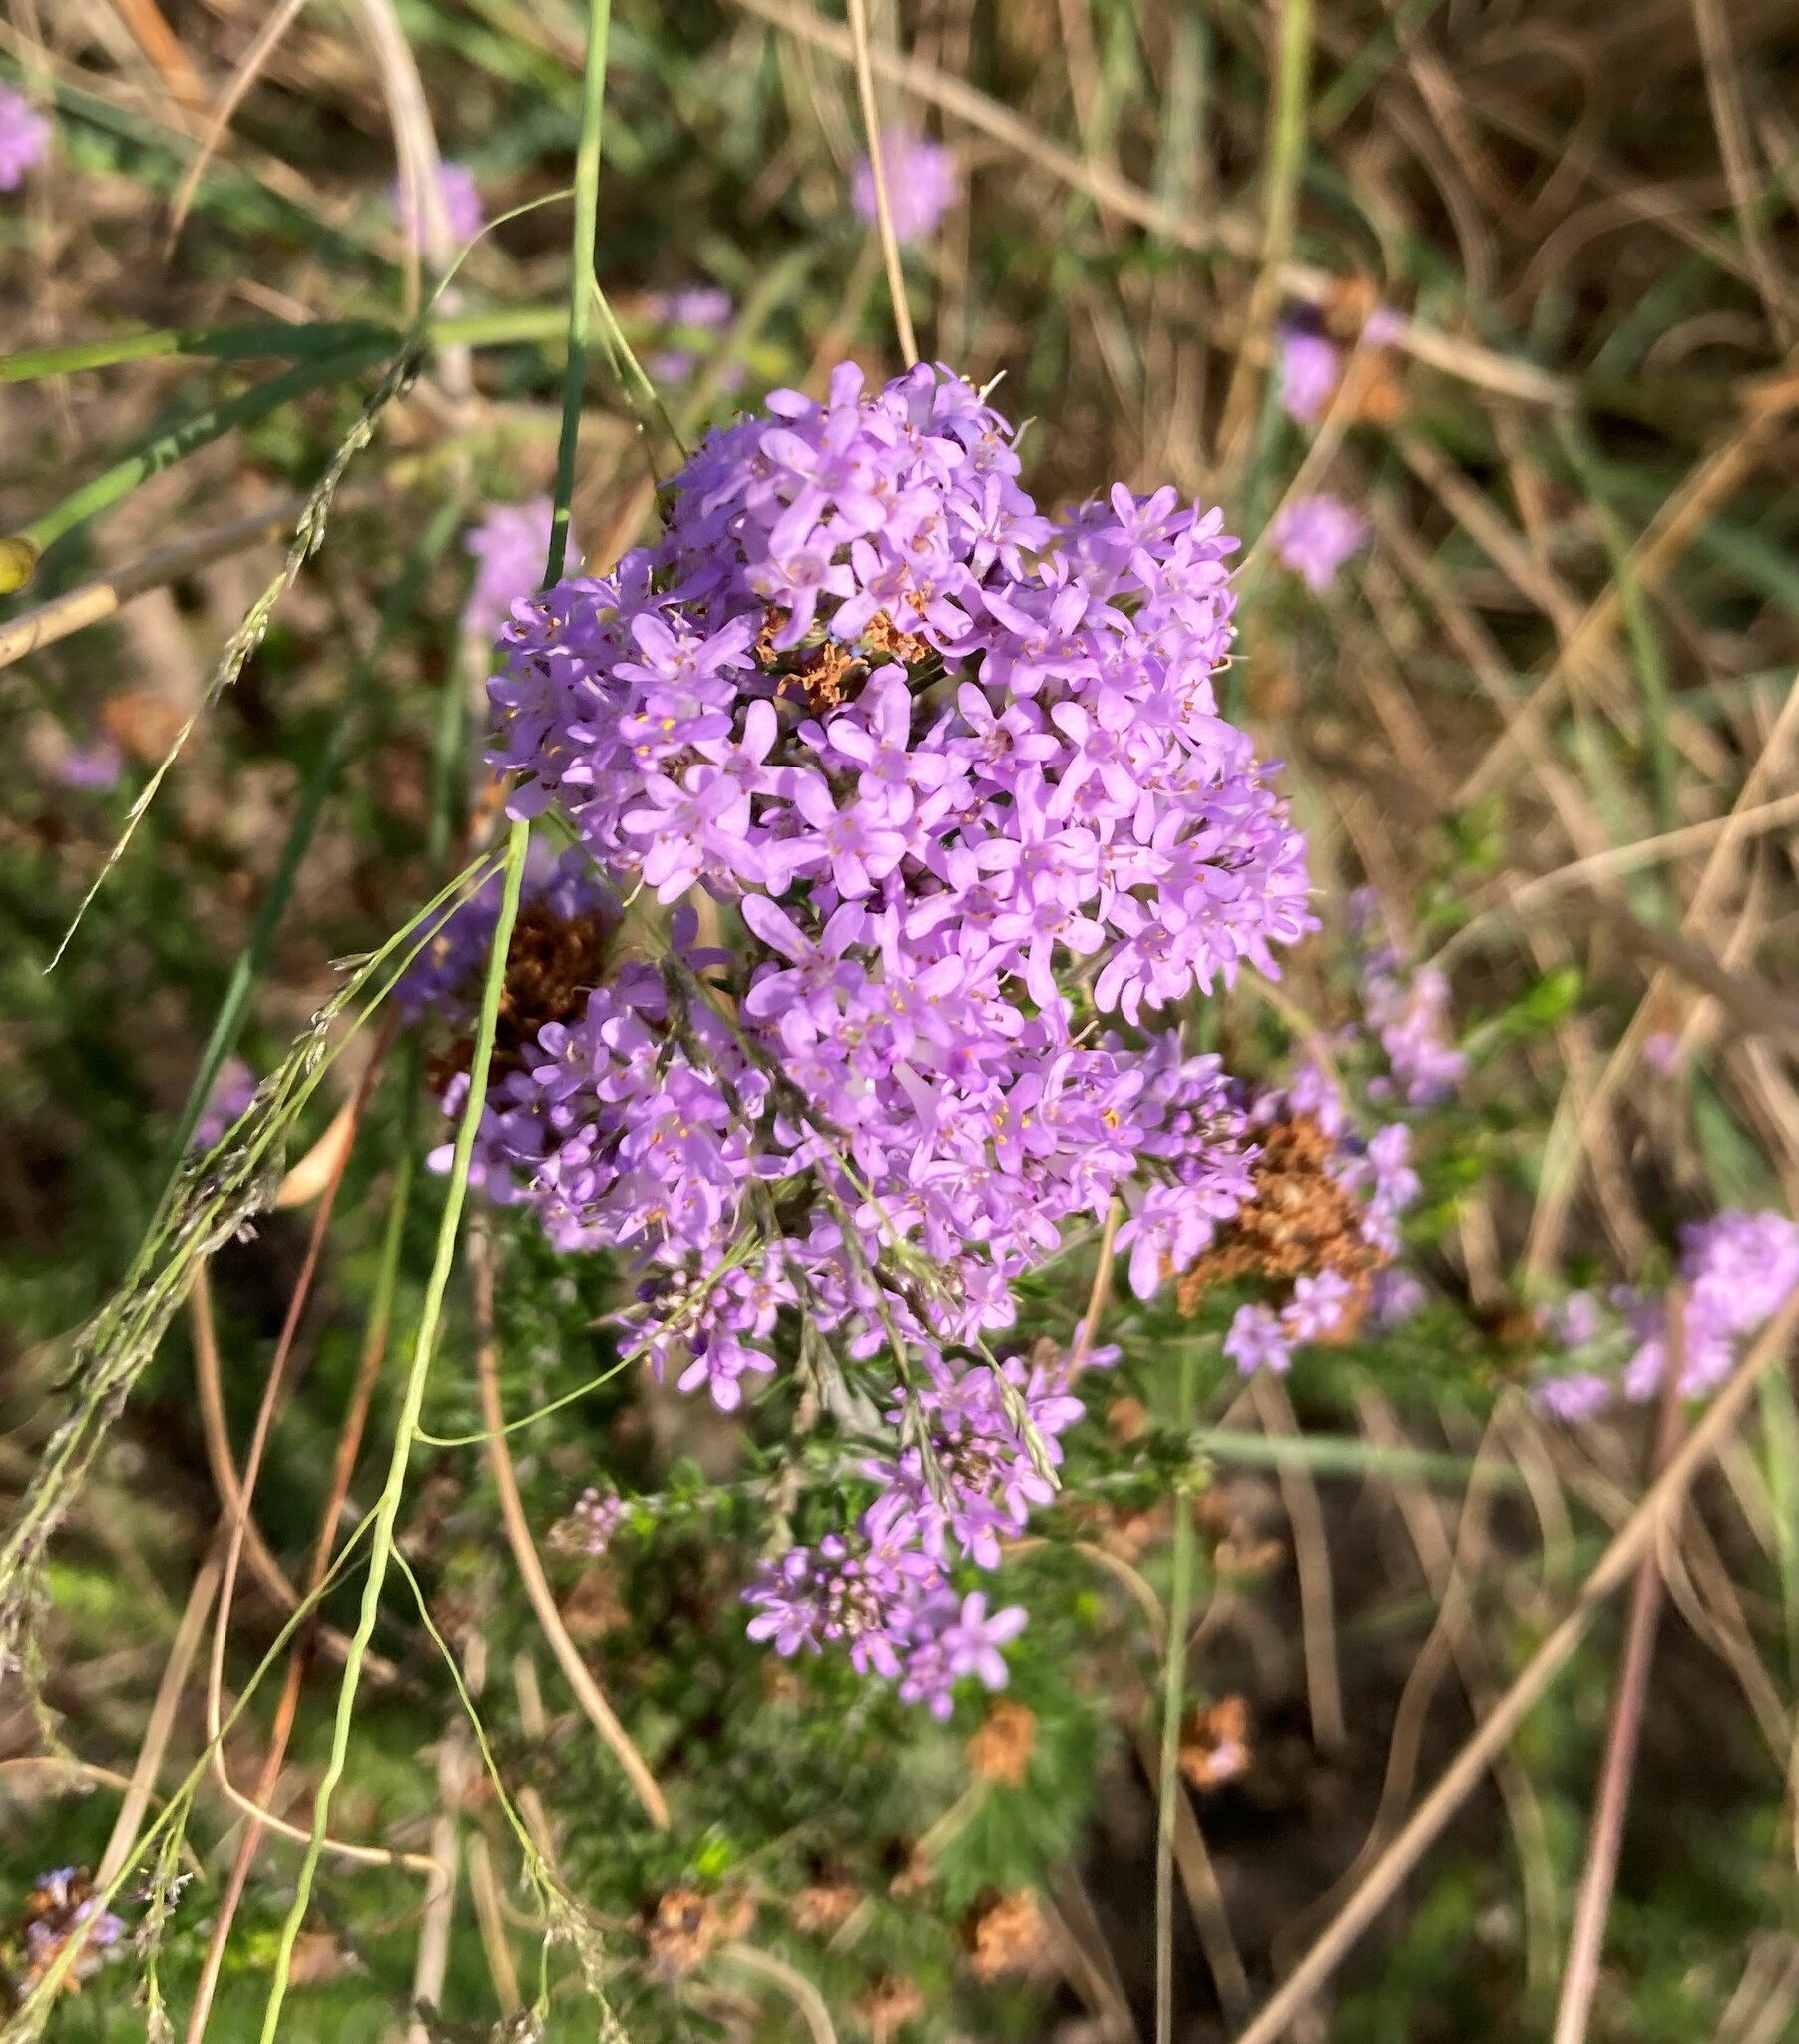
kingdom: Plantae
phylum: Tracheophyta
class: Magnoliopsida
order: Lamiales
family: Scrophulariaceae
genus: Selago
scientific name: Selago villicaulis
